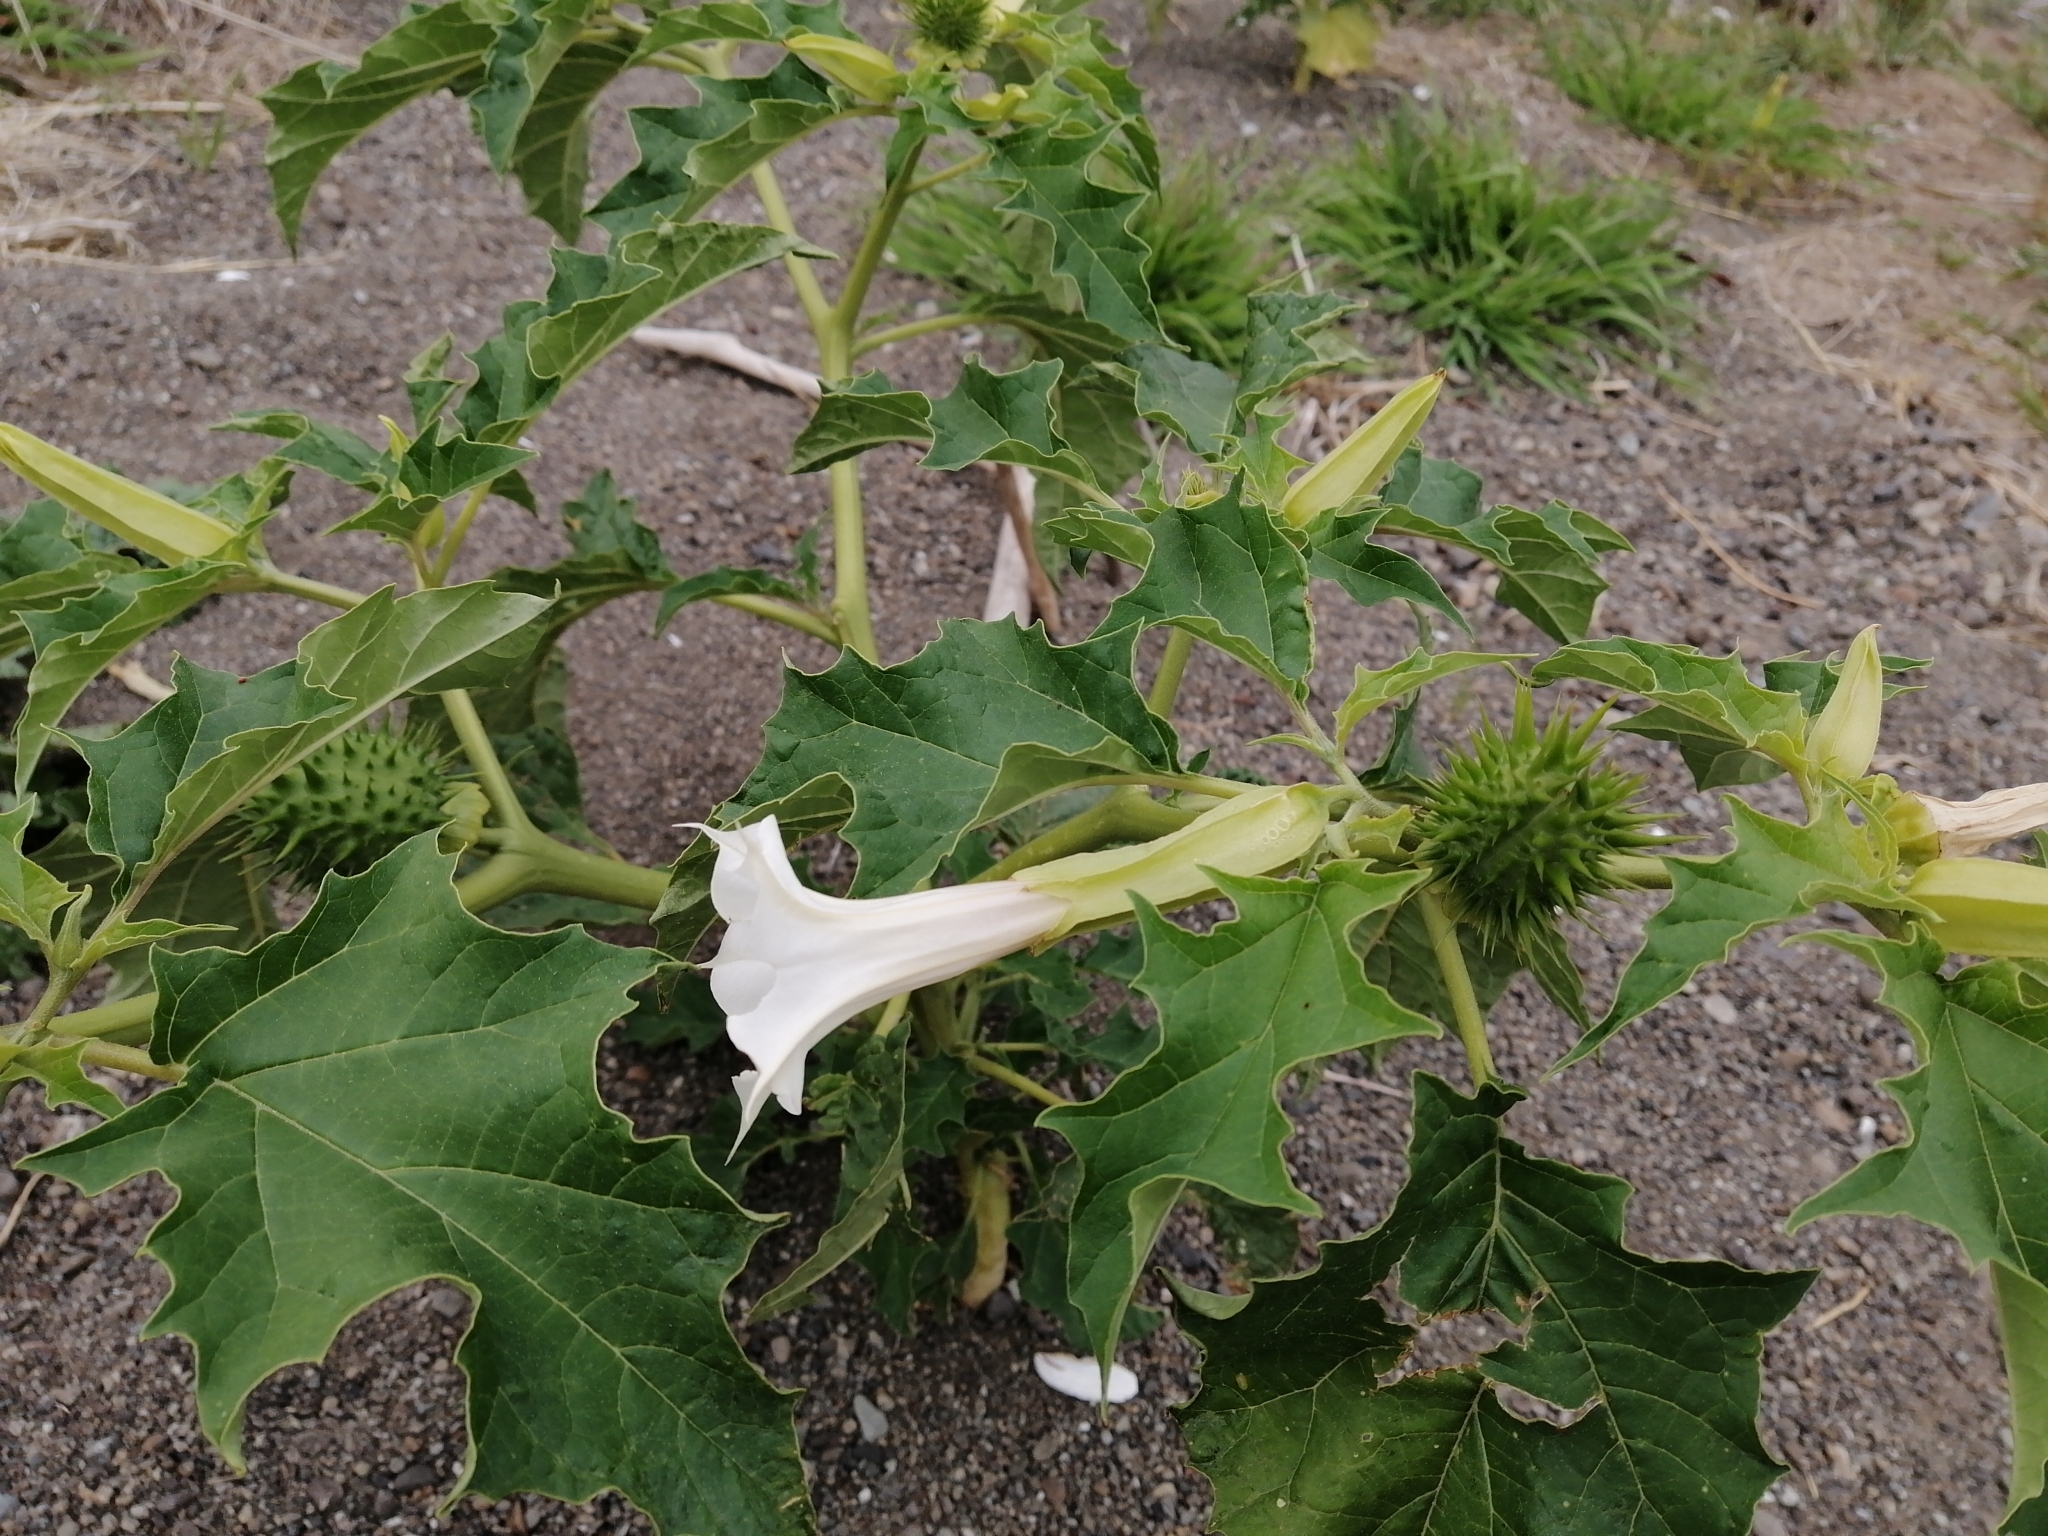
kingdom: Plantae
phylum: Tracheophyta
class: Magnoliopsida
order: Solanales
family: Solanaceae
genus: Datura
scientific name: Datura stramonium
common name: Thorn-apple
